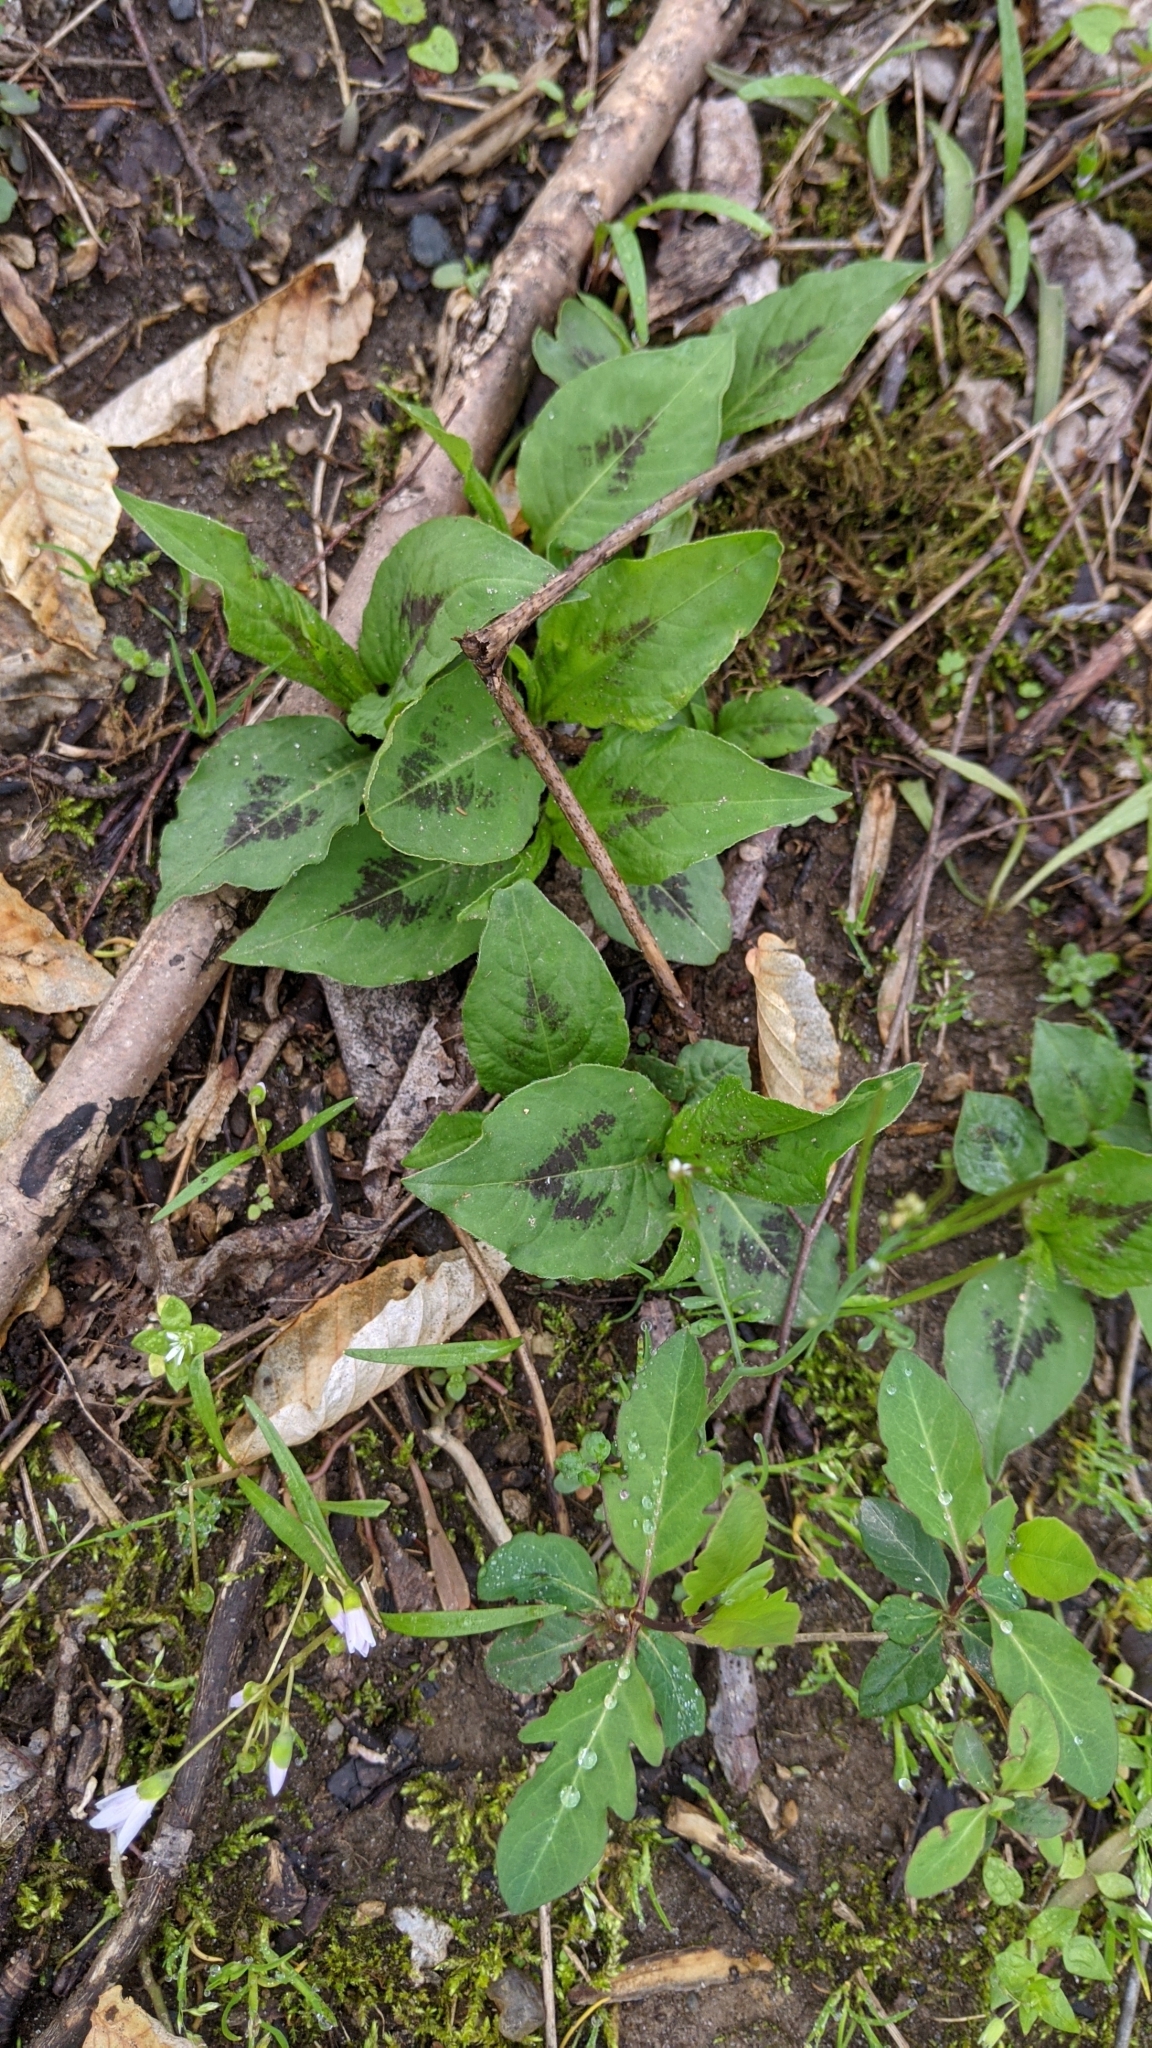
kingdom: Plantae
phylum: Tracheophyta
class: Magnoliopsida
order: Caryophyllales
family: Polygonaceae
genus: Persicaria
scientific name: Persicaria virginiana
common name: Jumpseed
